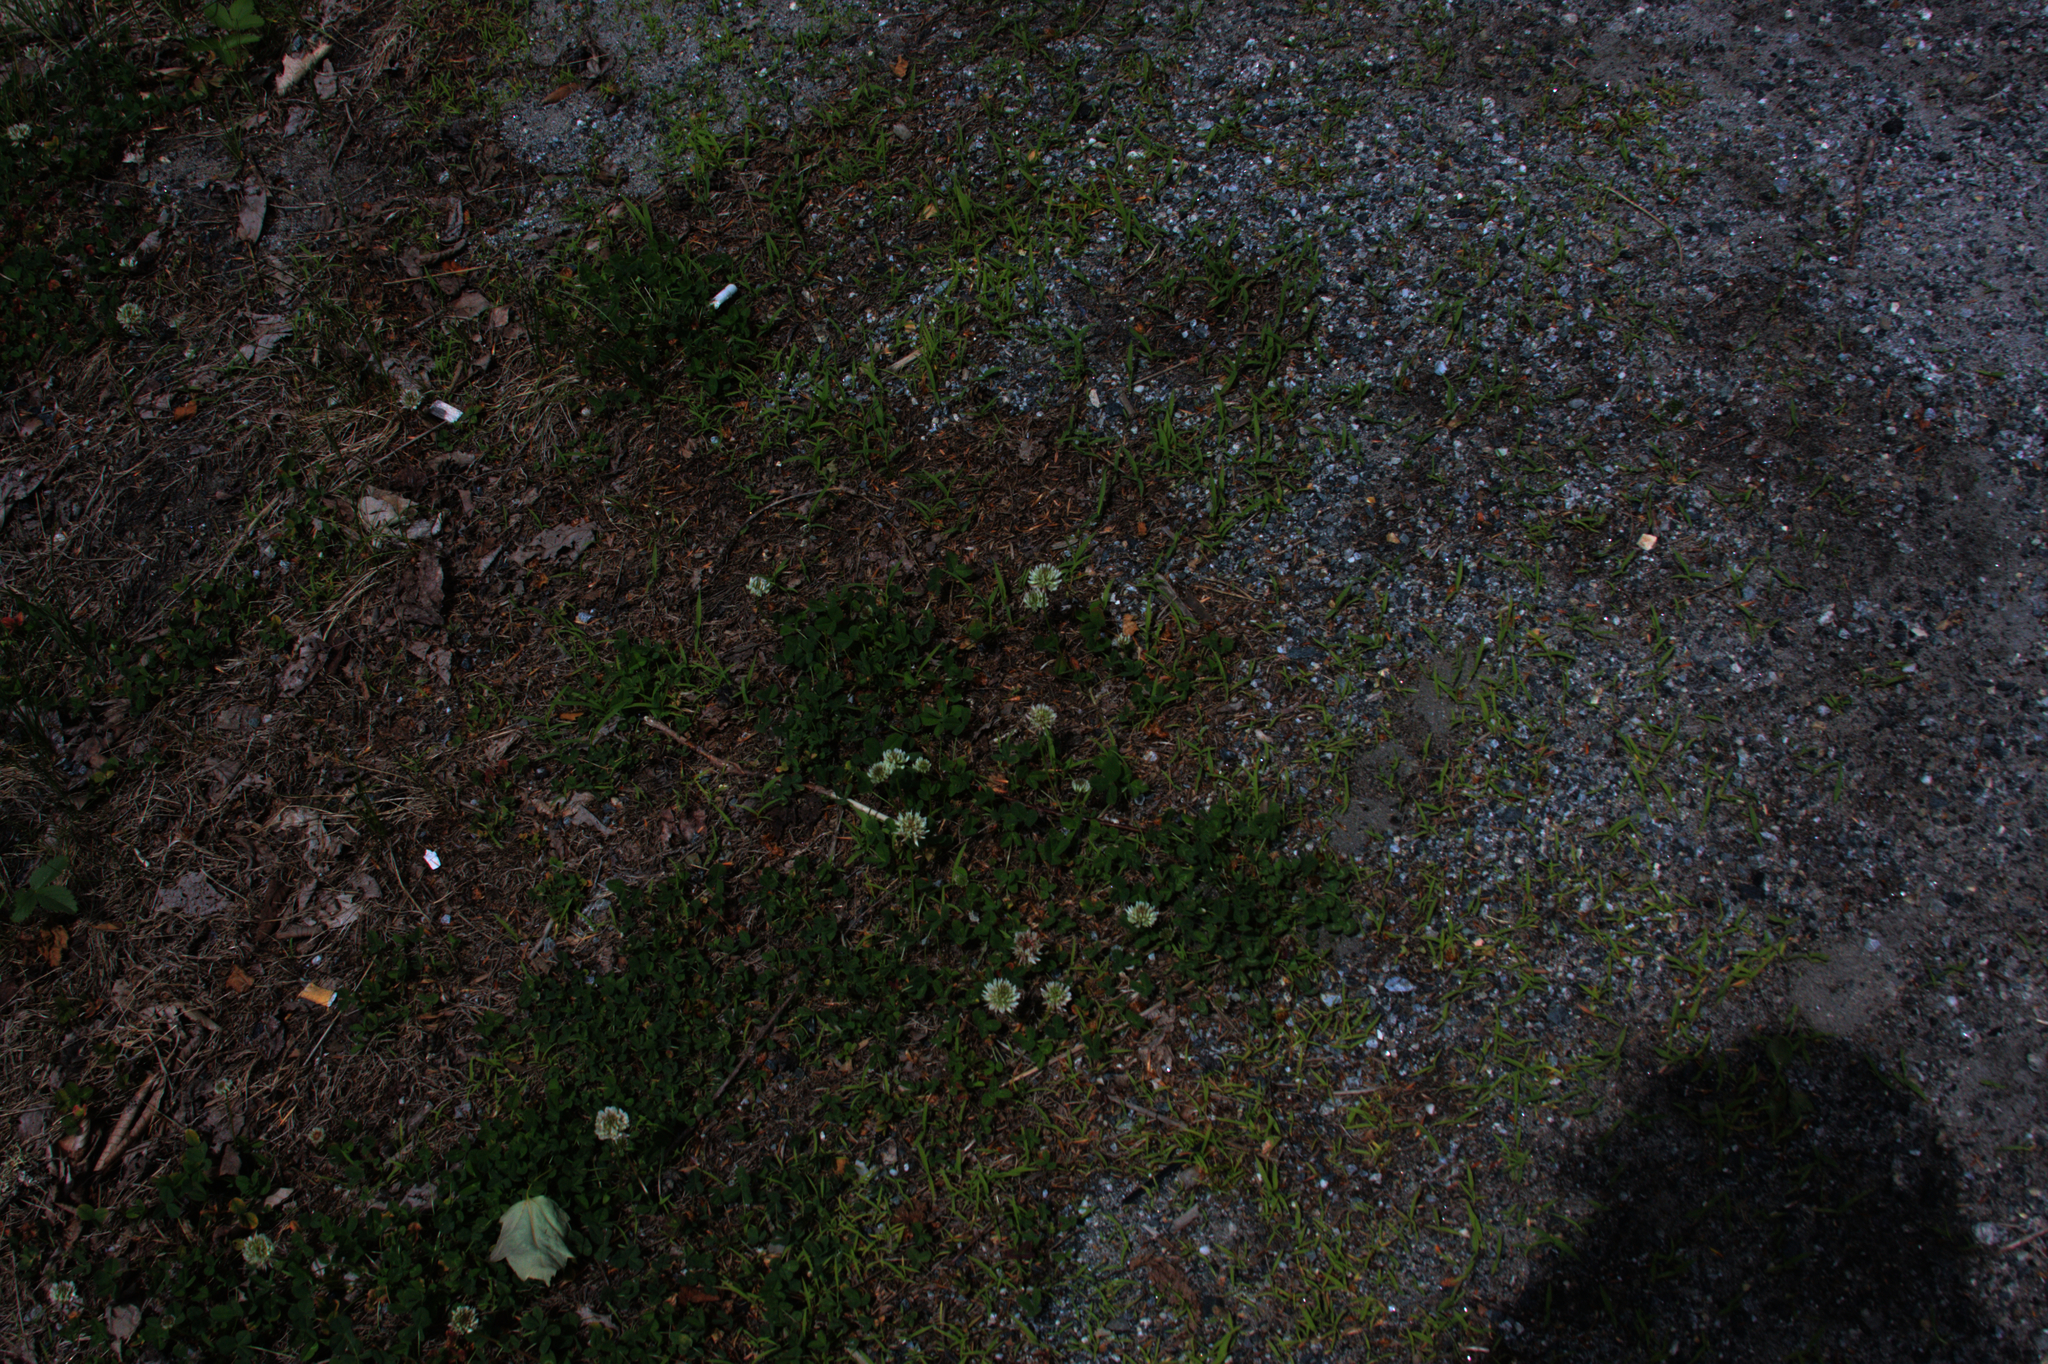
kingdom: Plantae
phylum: Tracheophyta
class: Magnoliopsida
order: Fabales
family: Fabaceae
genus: Trifolium
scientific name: Trifolium repens
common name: White clover
